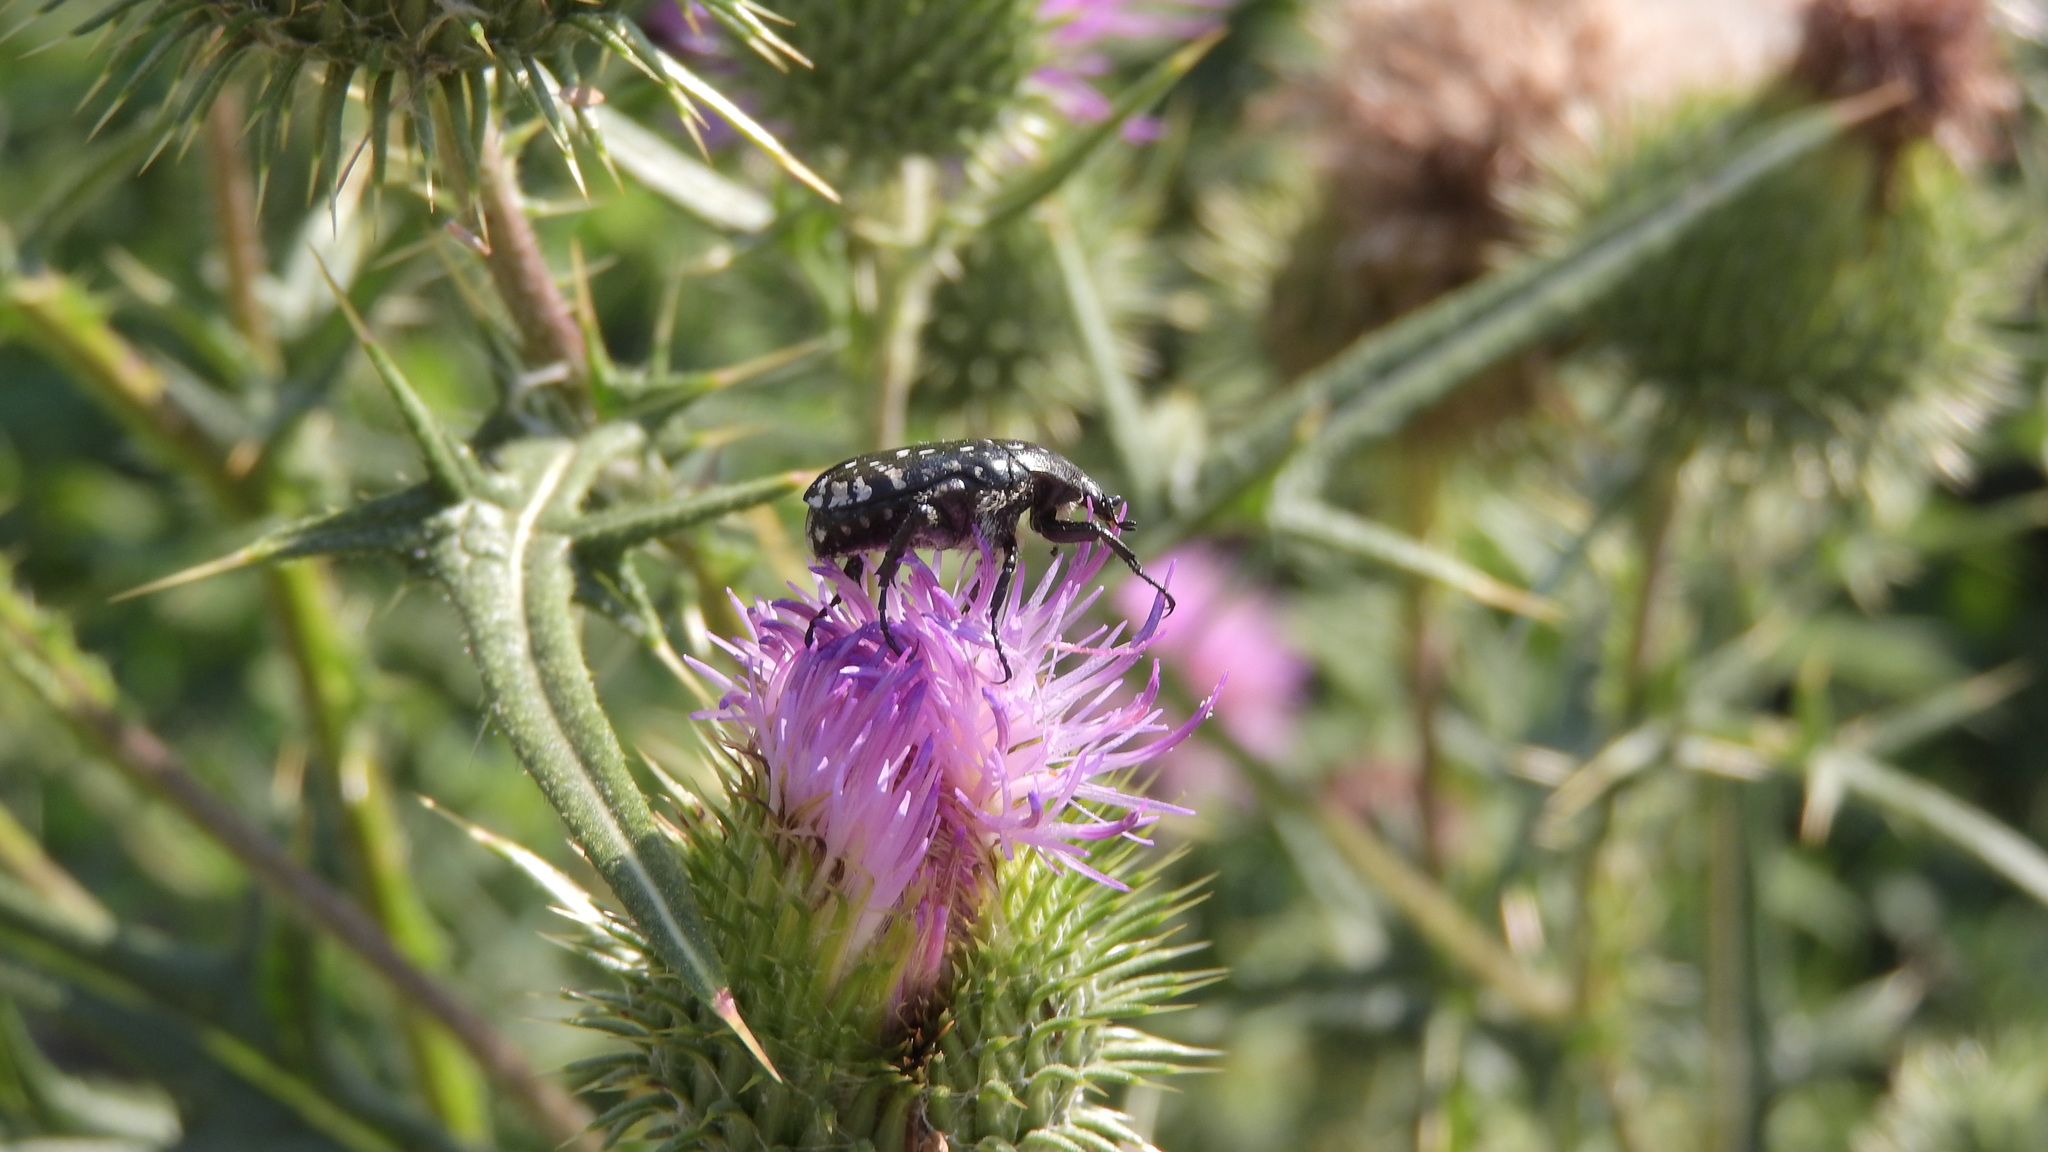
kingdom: Animalia
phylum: Arthropoda
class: Insecta
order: Coleoptera
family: Scarabaeidae
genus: Oxythyrea
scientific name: Oxythyrea funesta
